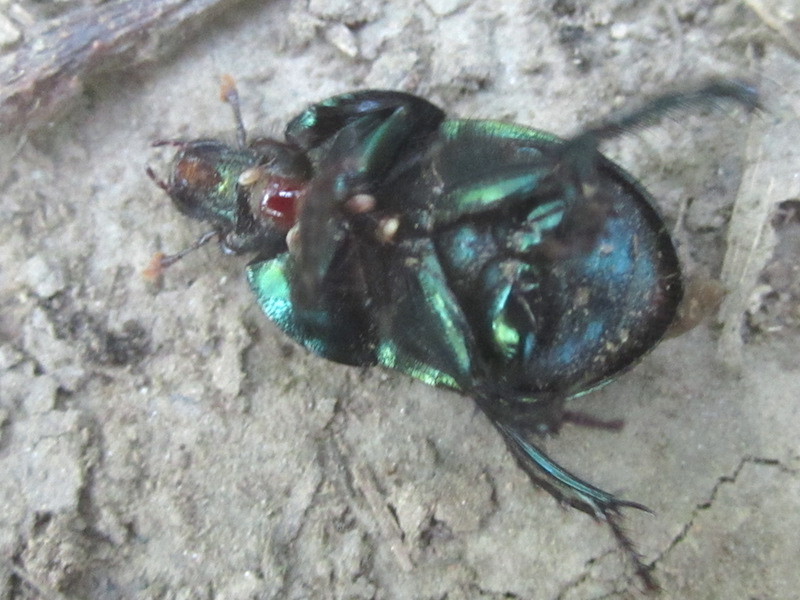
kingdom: Animalia
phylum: Arthropoda
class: Insecta
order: Coleoptera
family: Geotrupidae
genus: Geotrupes
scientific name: Geotrupes splendidus
